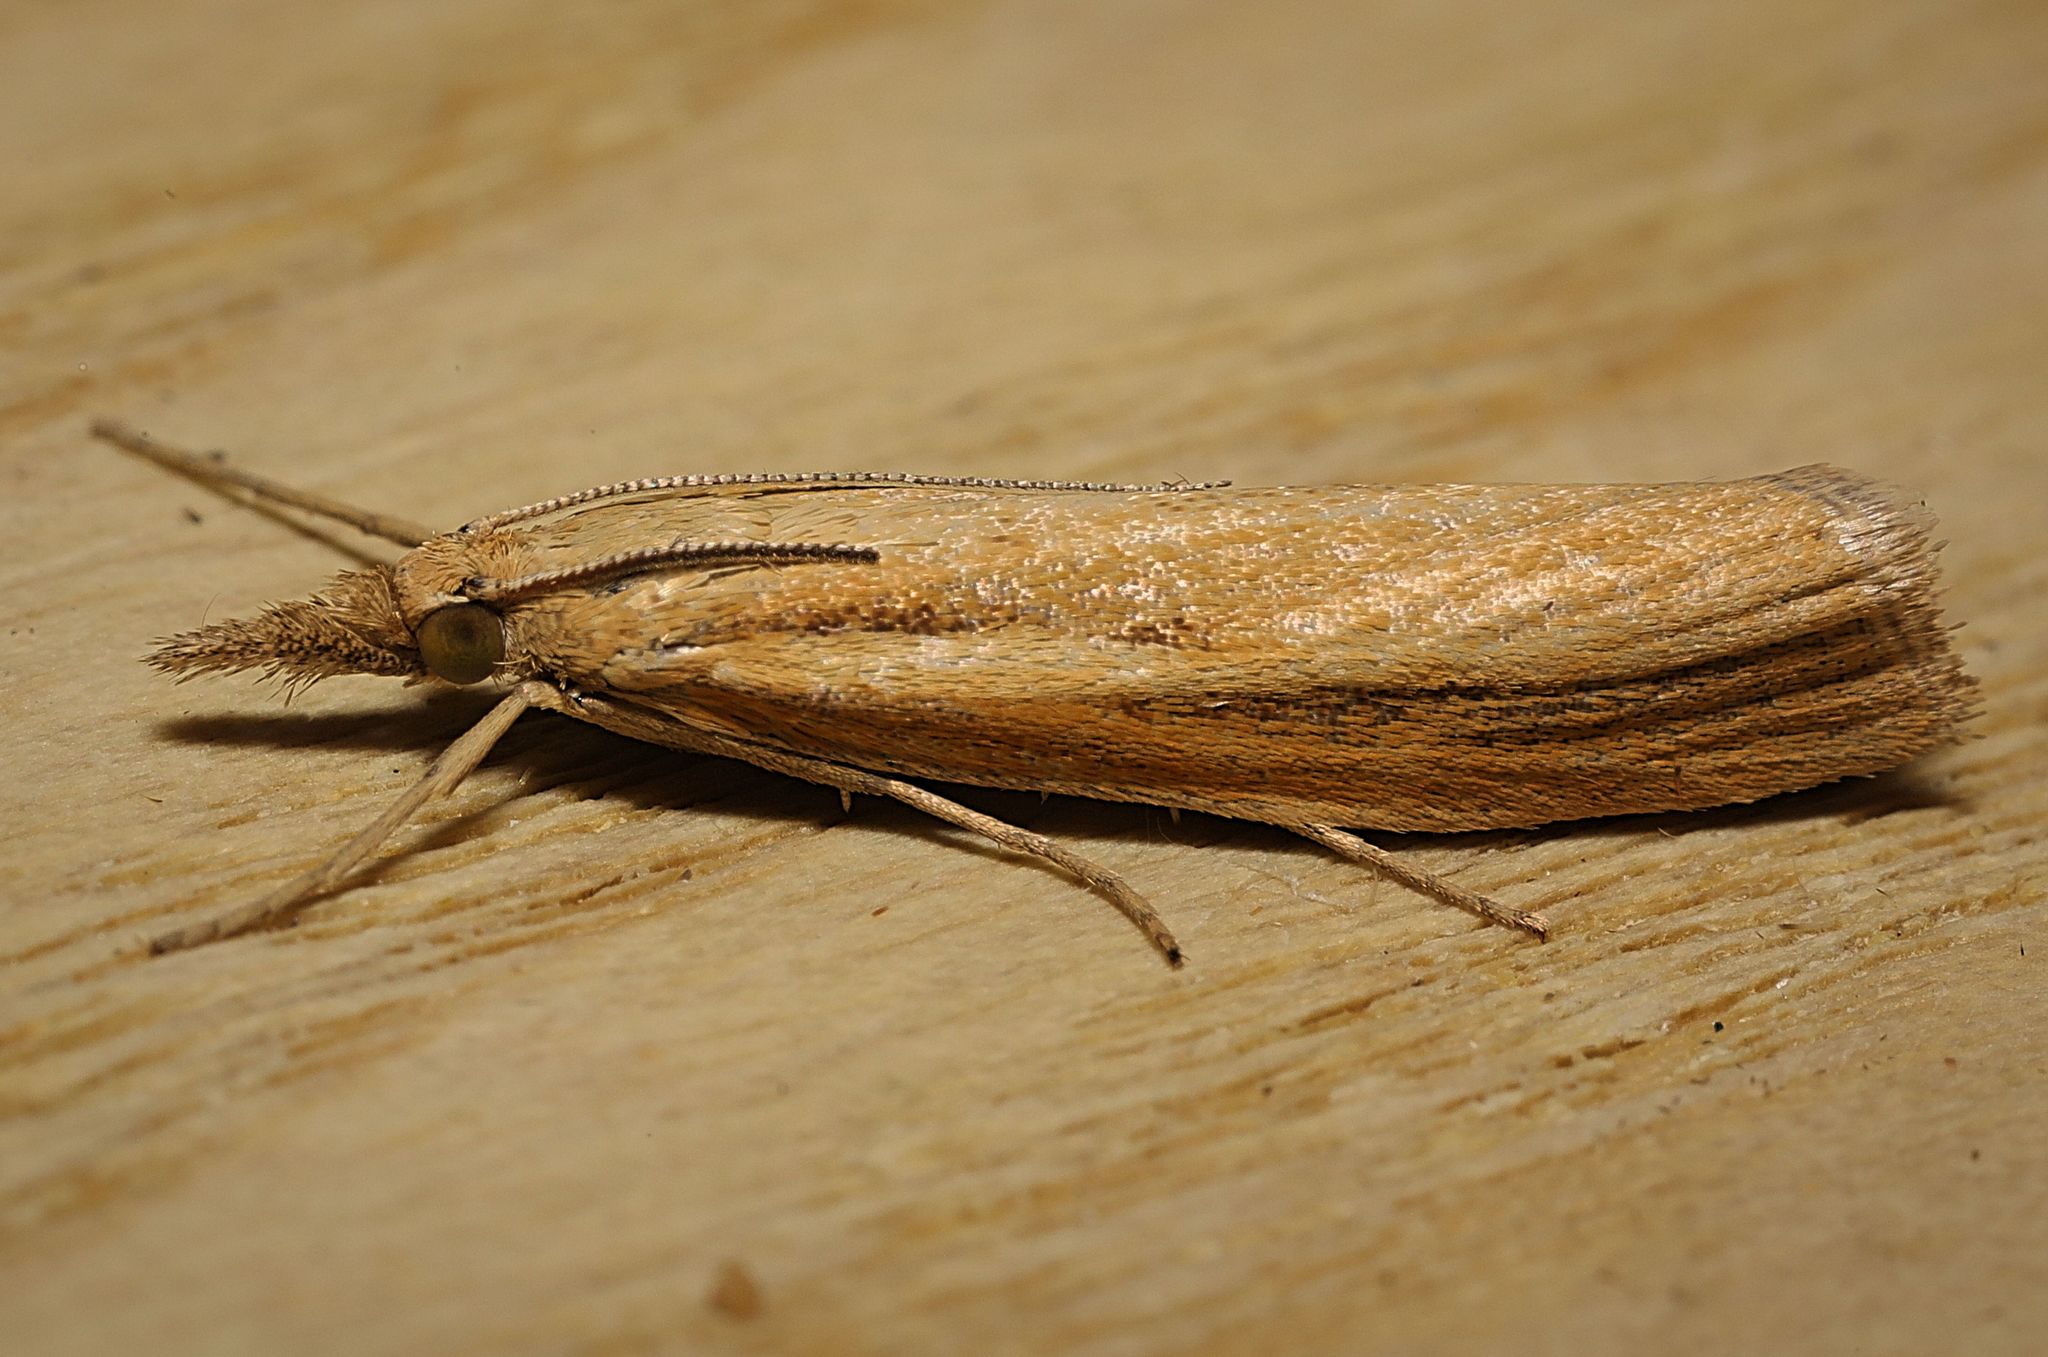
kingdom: Animalia
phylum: Arthropoda
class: Insecta
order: Lepidoptera
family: Crambidae
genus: Agriphila
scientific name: Agriphila tristellus
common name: Common grass-veneer
